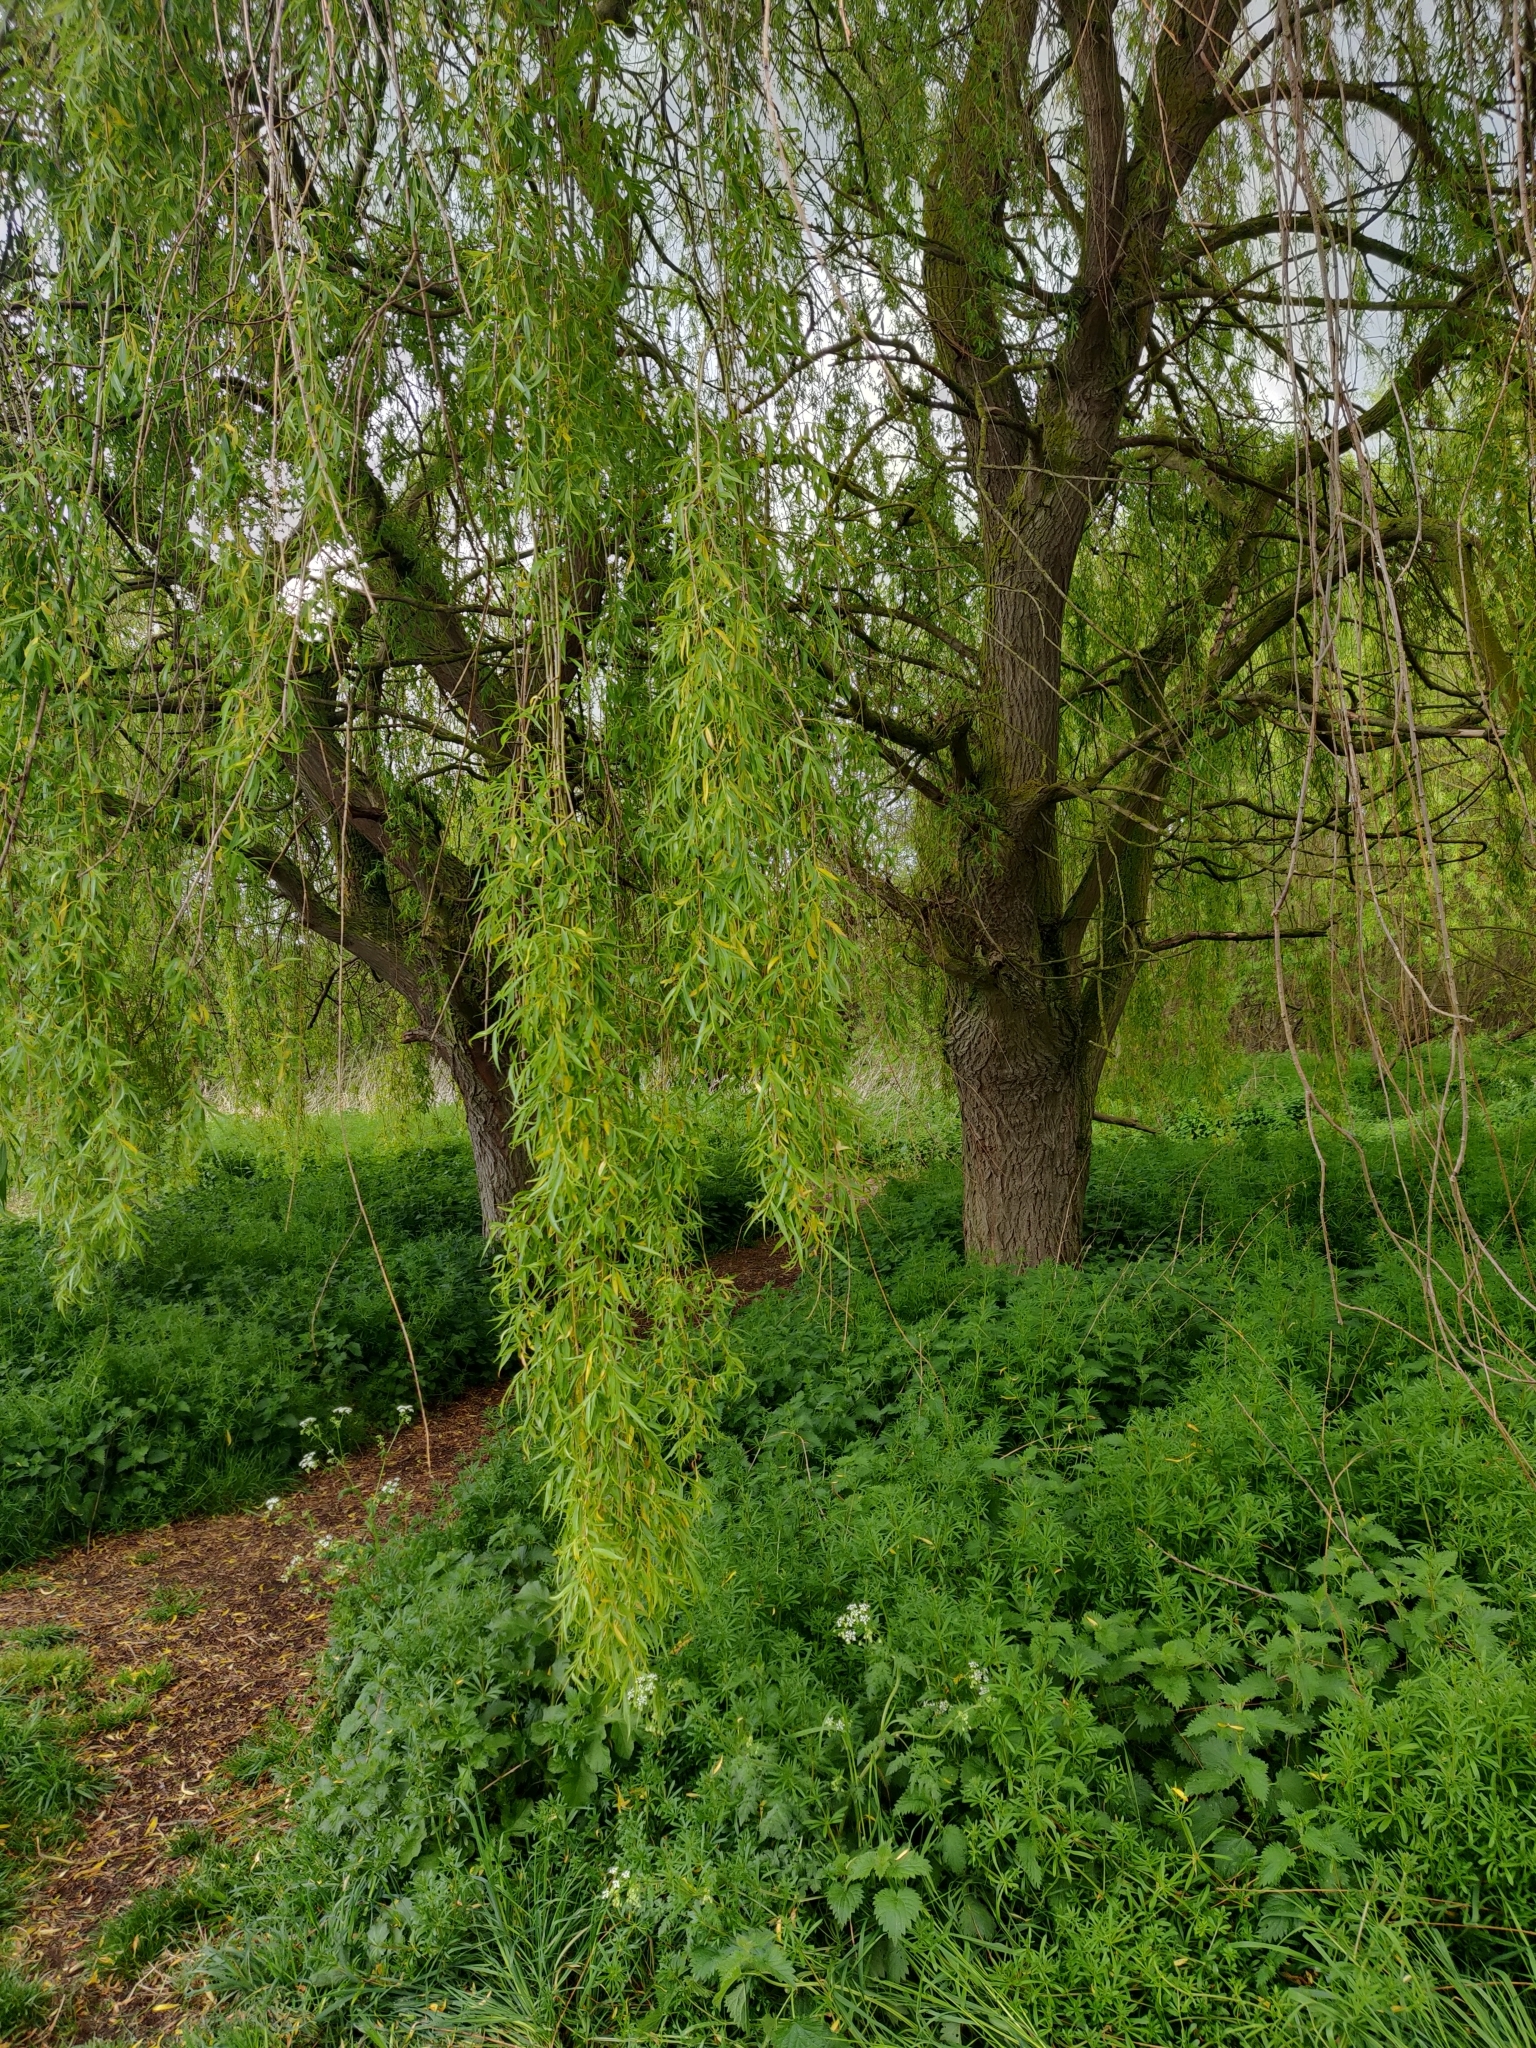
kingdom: Plantae
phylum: Tracheophyta
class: Magnoliopsida
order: Malpighiales
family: Salicaceae
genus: Salix
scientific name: Salix pendulina
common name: Wisconsin weeping willow
